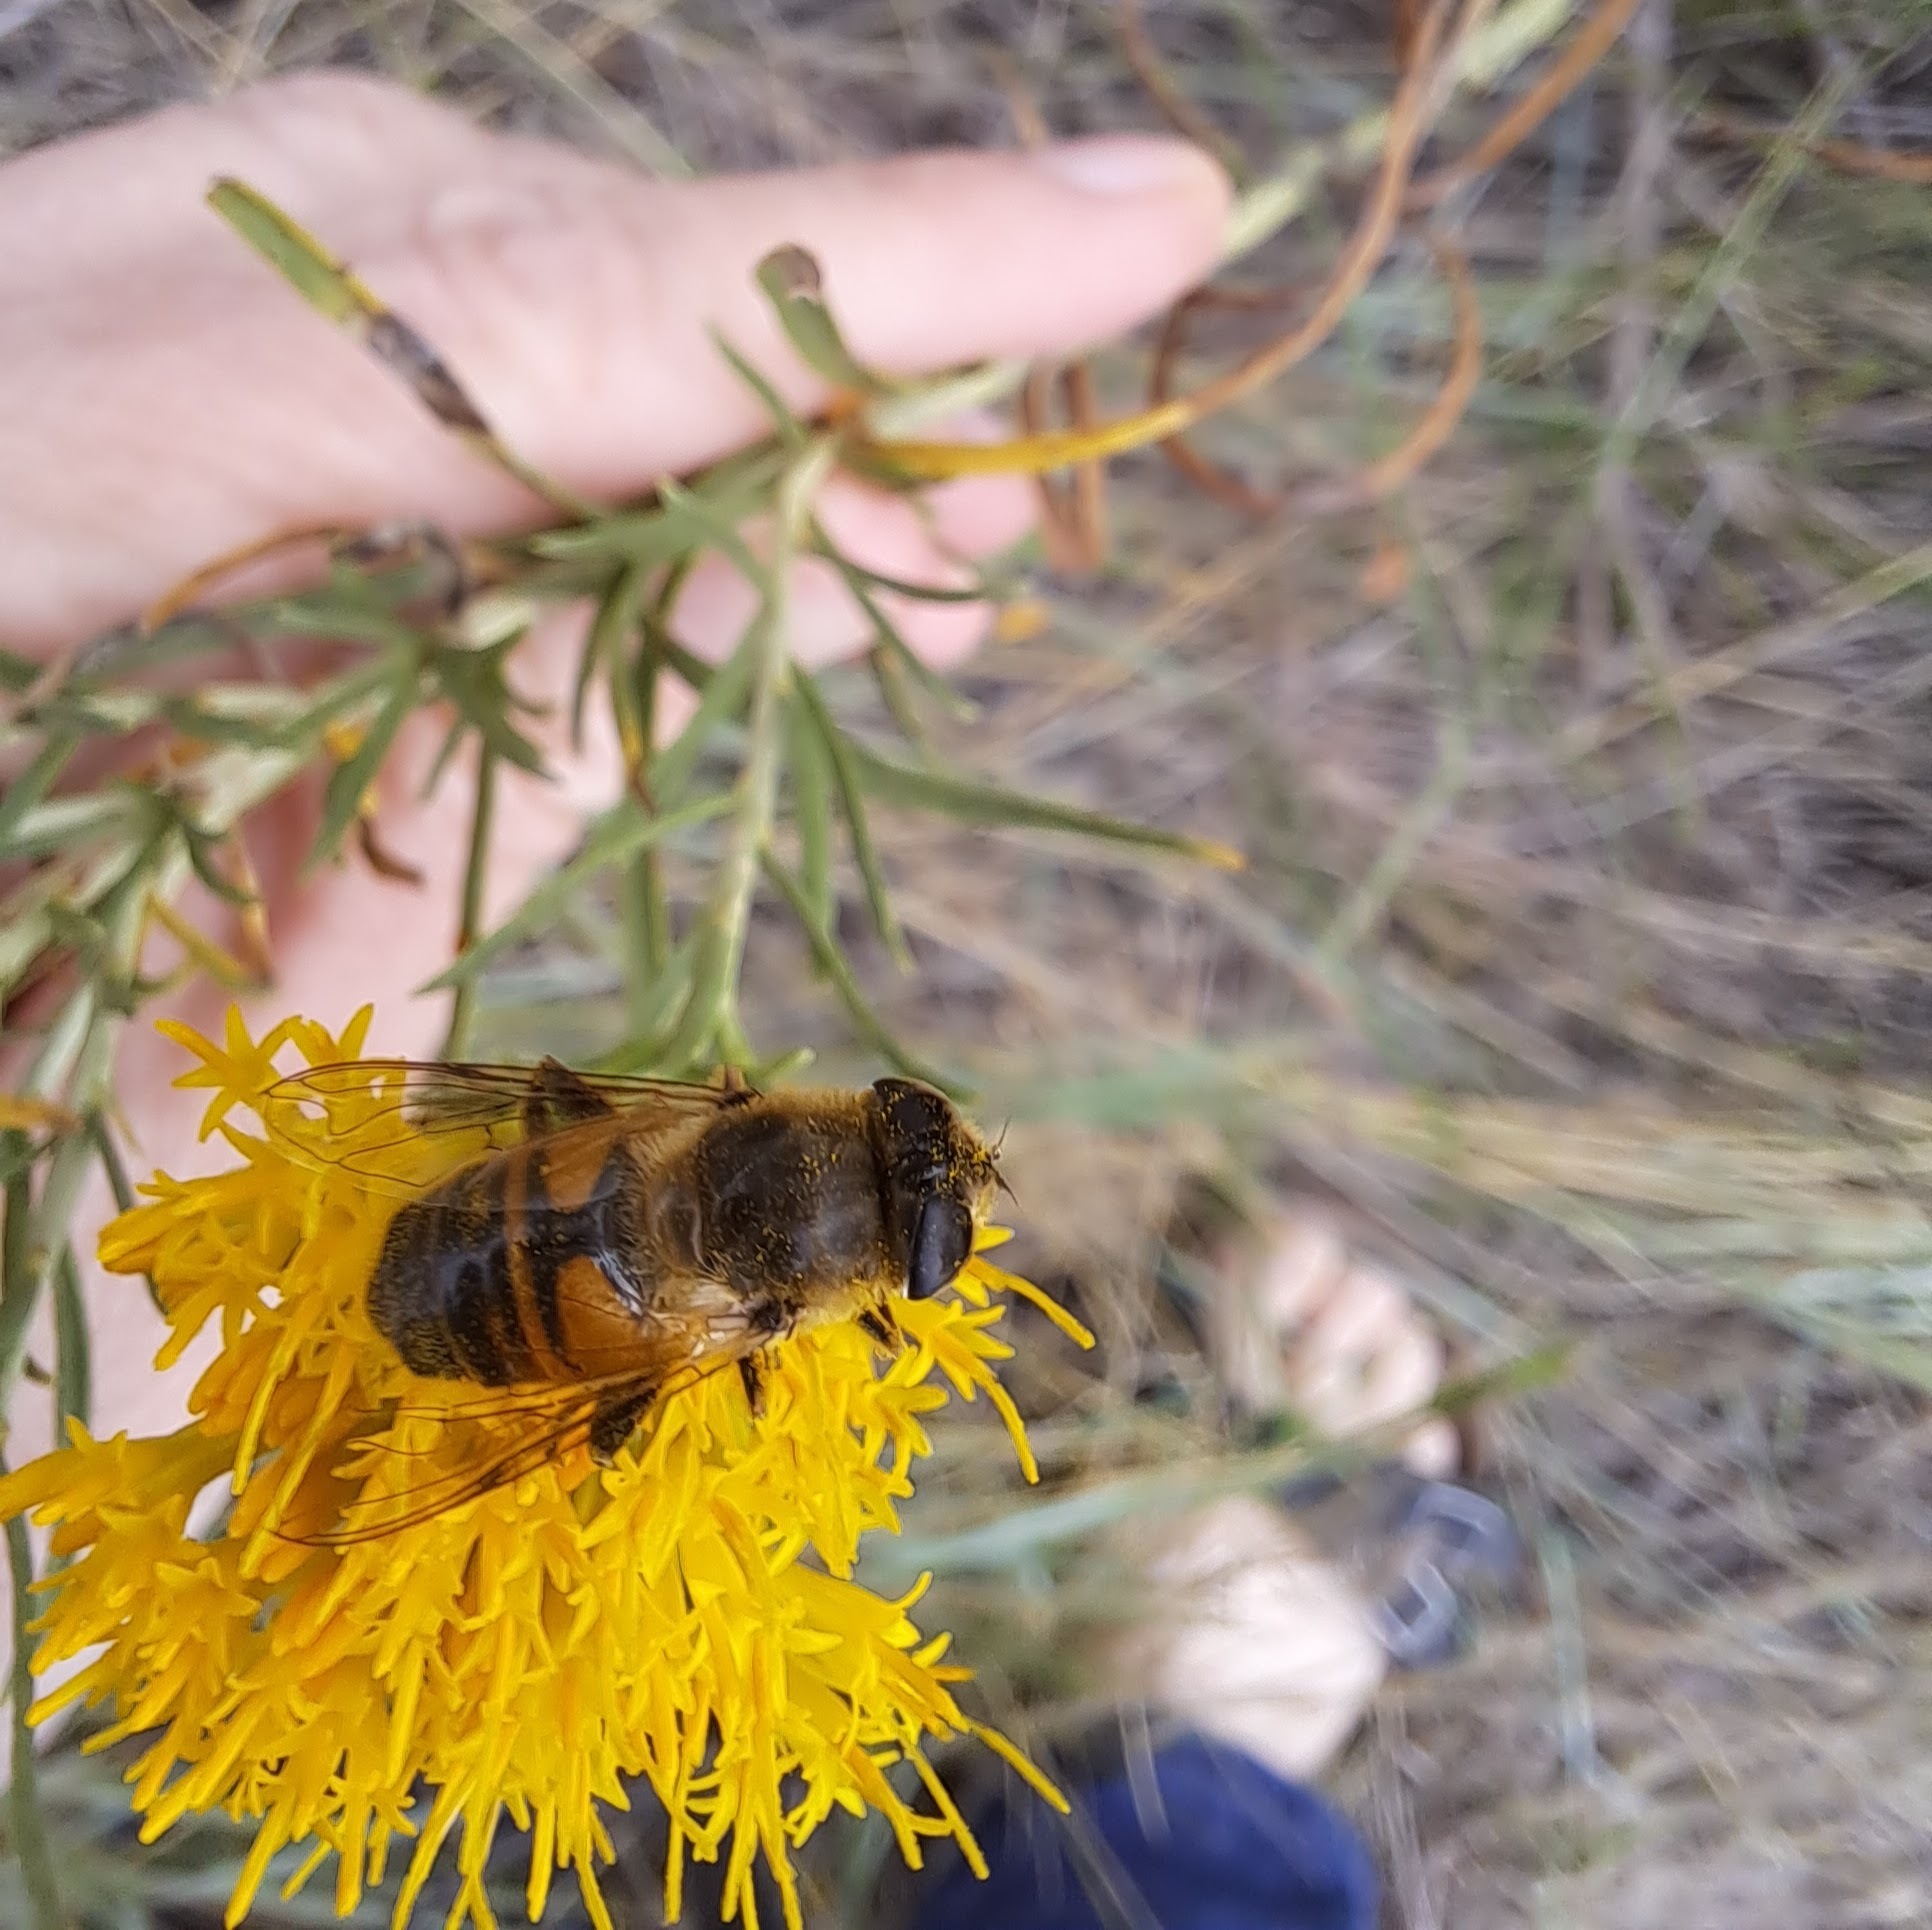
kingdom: Animalia
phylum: Arthropoda
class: Insecta
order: Diptera
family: Syrphidae
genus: Eristalis
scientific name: Eristalis tenax
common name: Drone fly
